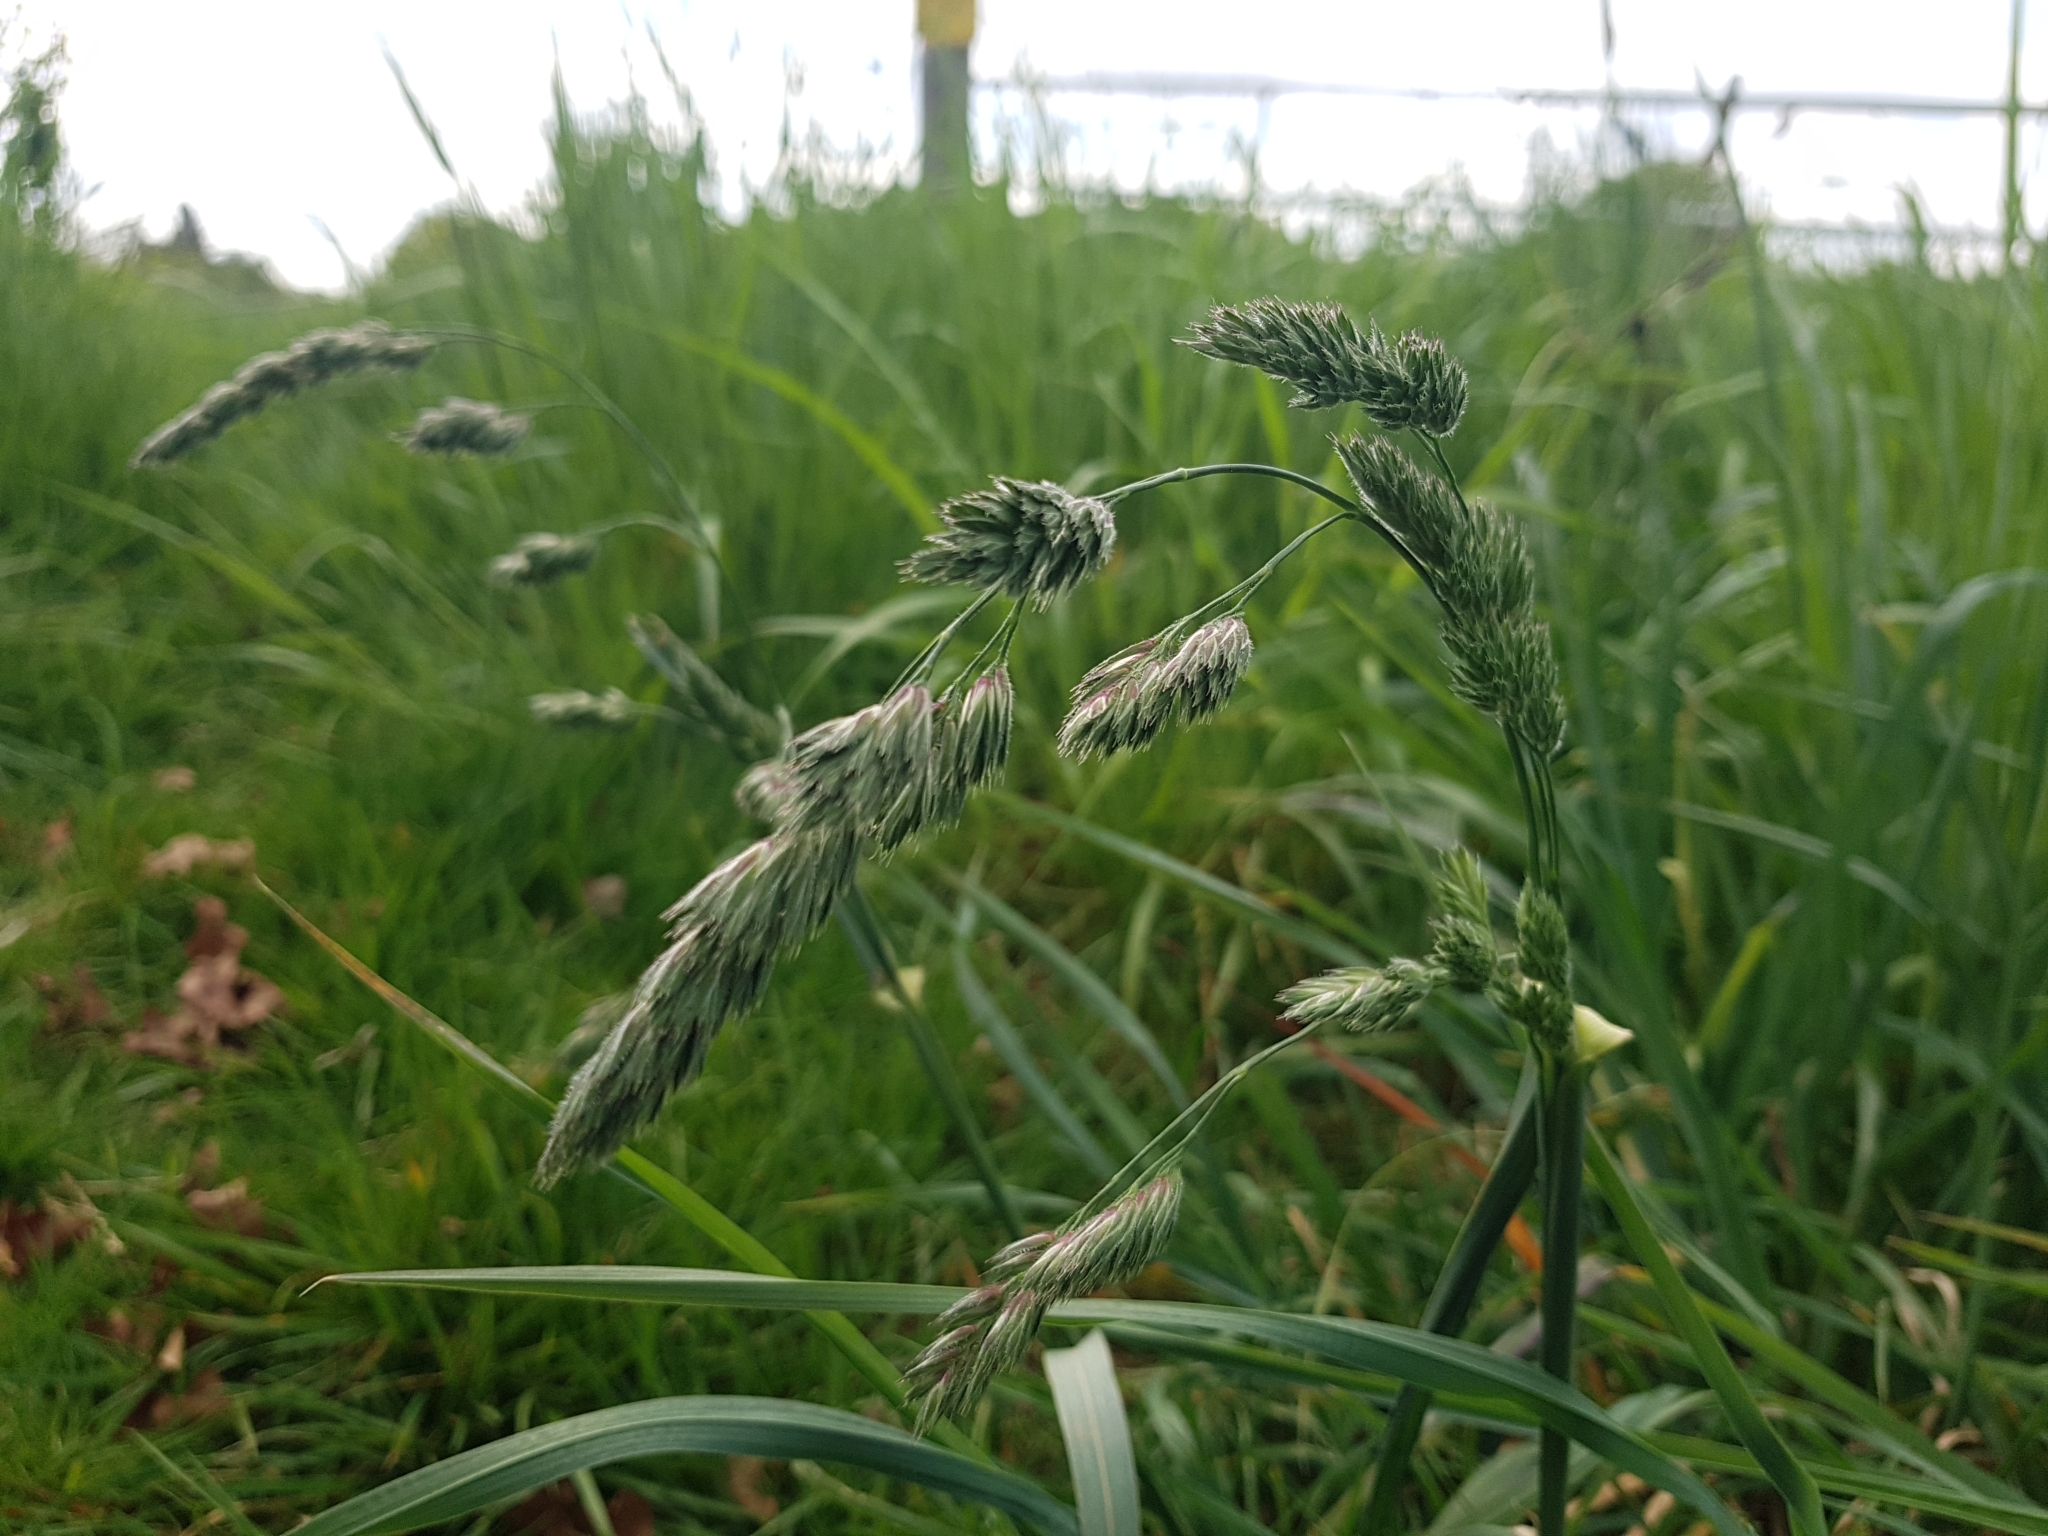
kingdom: Plantae
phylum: Tracheophyta
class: Liliopsida
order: Poales
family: Poaceae
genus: Dactylis
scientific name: Dactylis glomerata
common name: Orchardgrass
